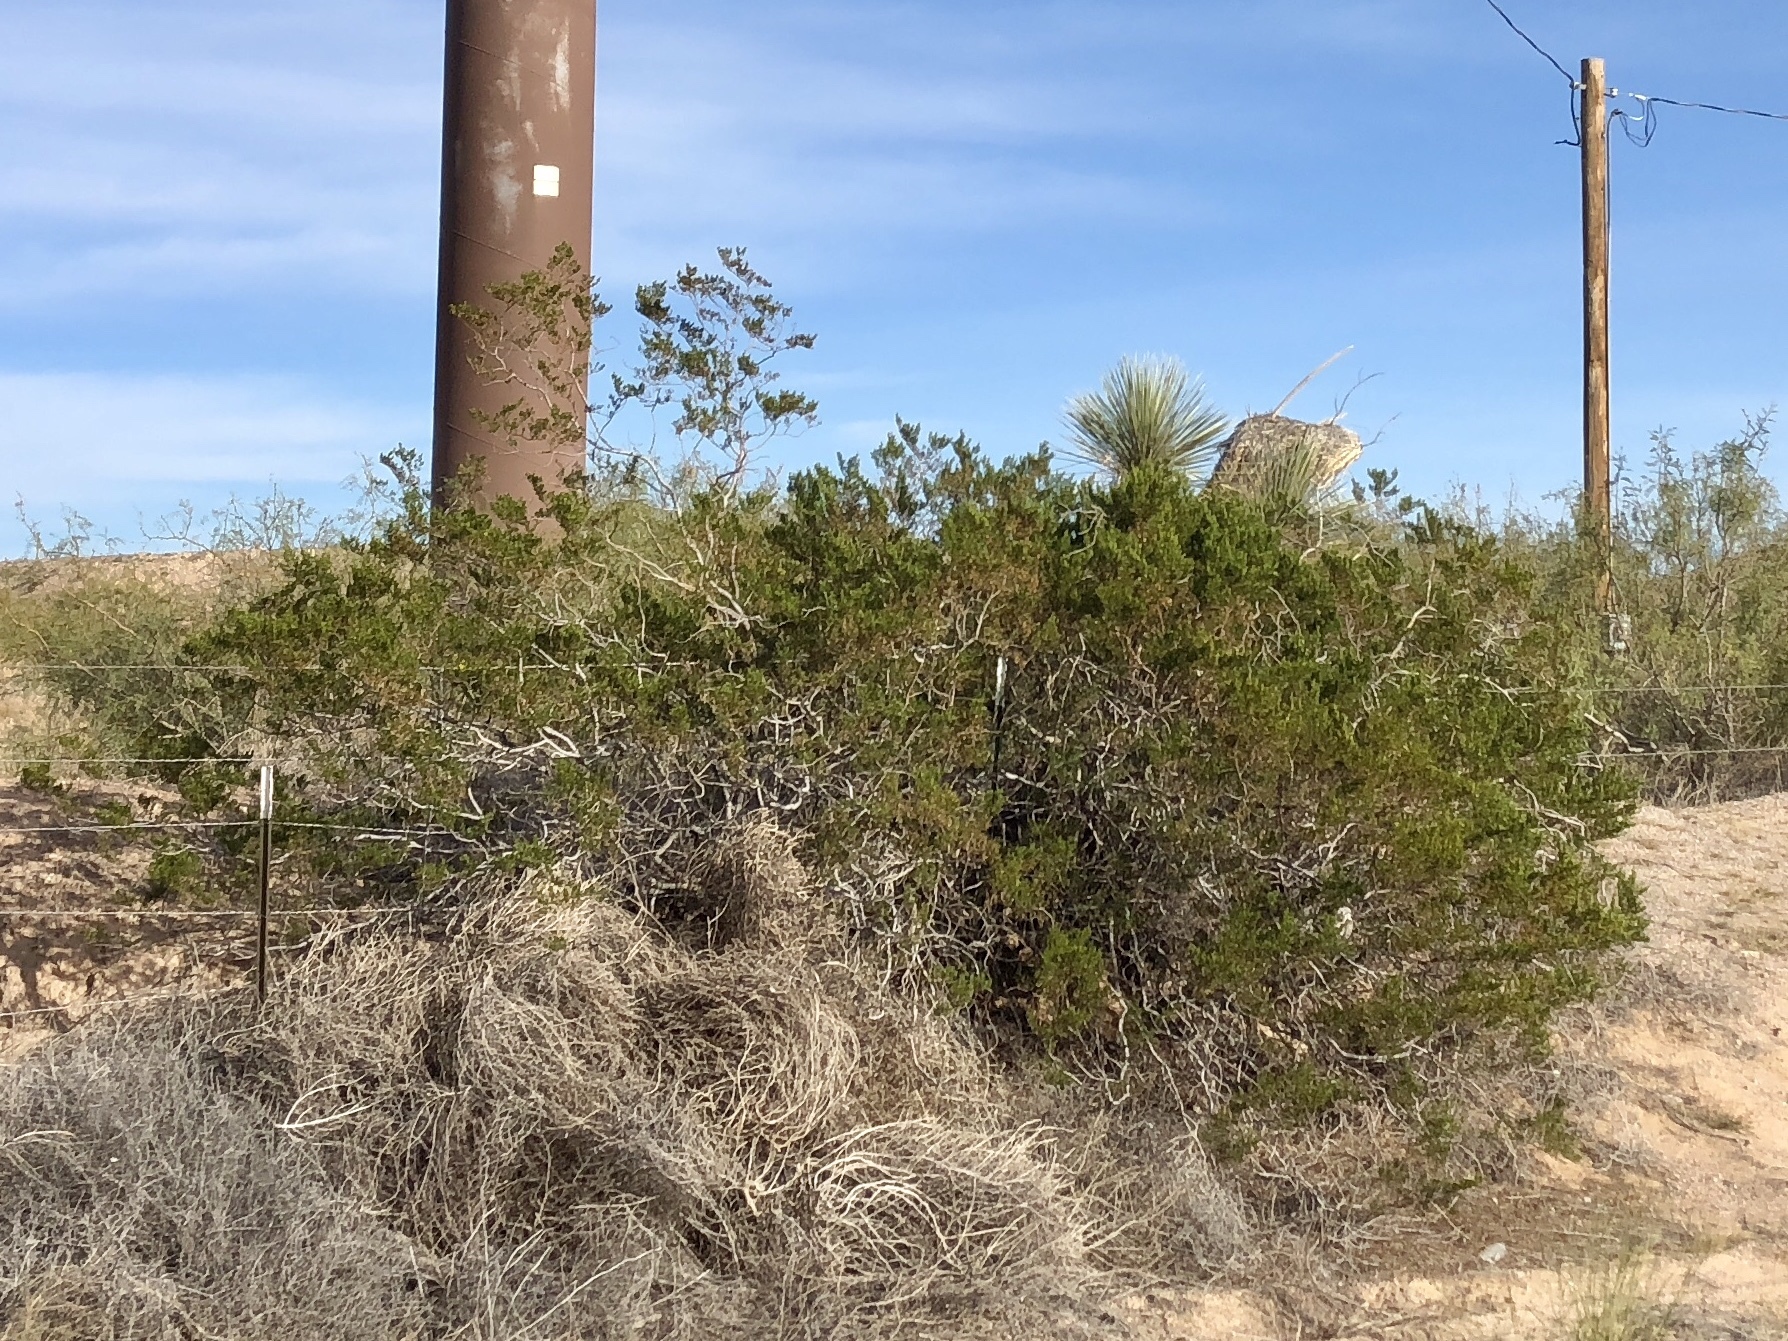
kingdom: Plantae
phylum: Tracheophyta
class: Magnoliopsida
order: Zygophyllales
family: Zygophyllaceae
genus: Larrea
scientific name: Larrea tridentata
